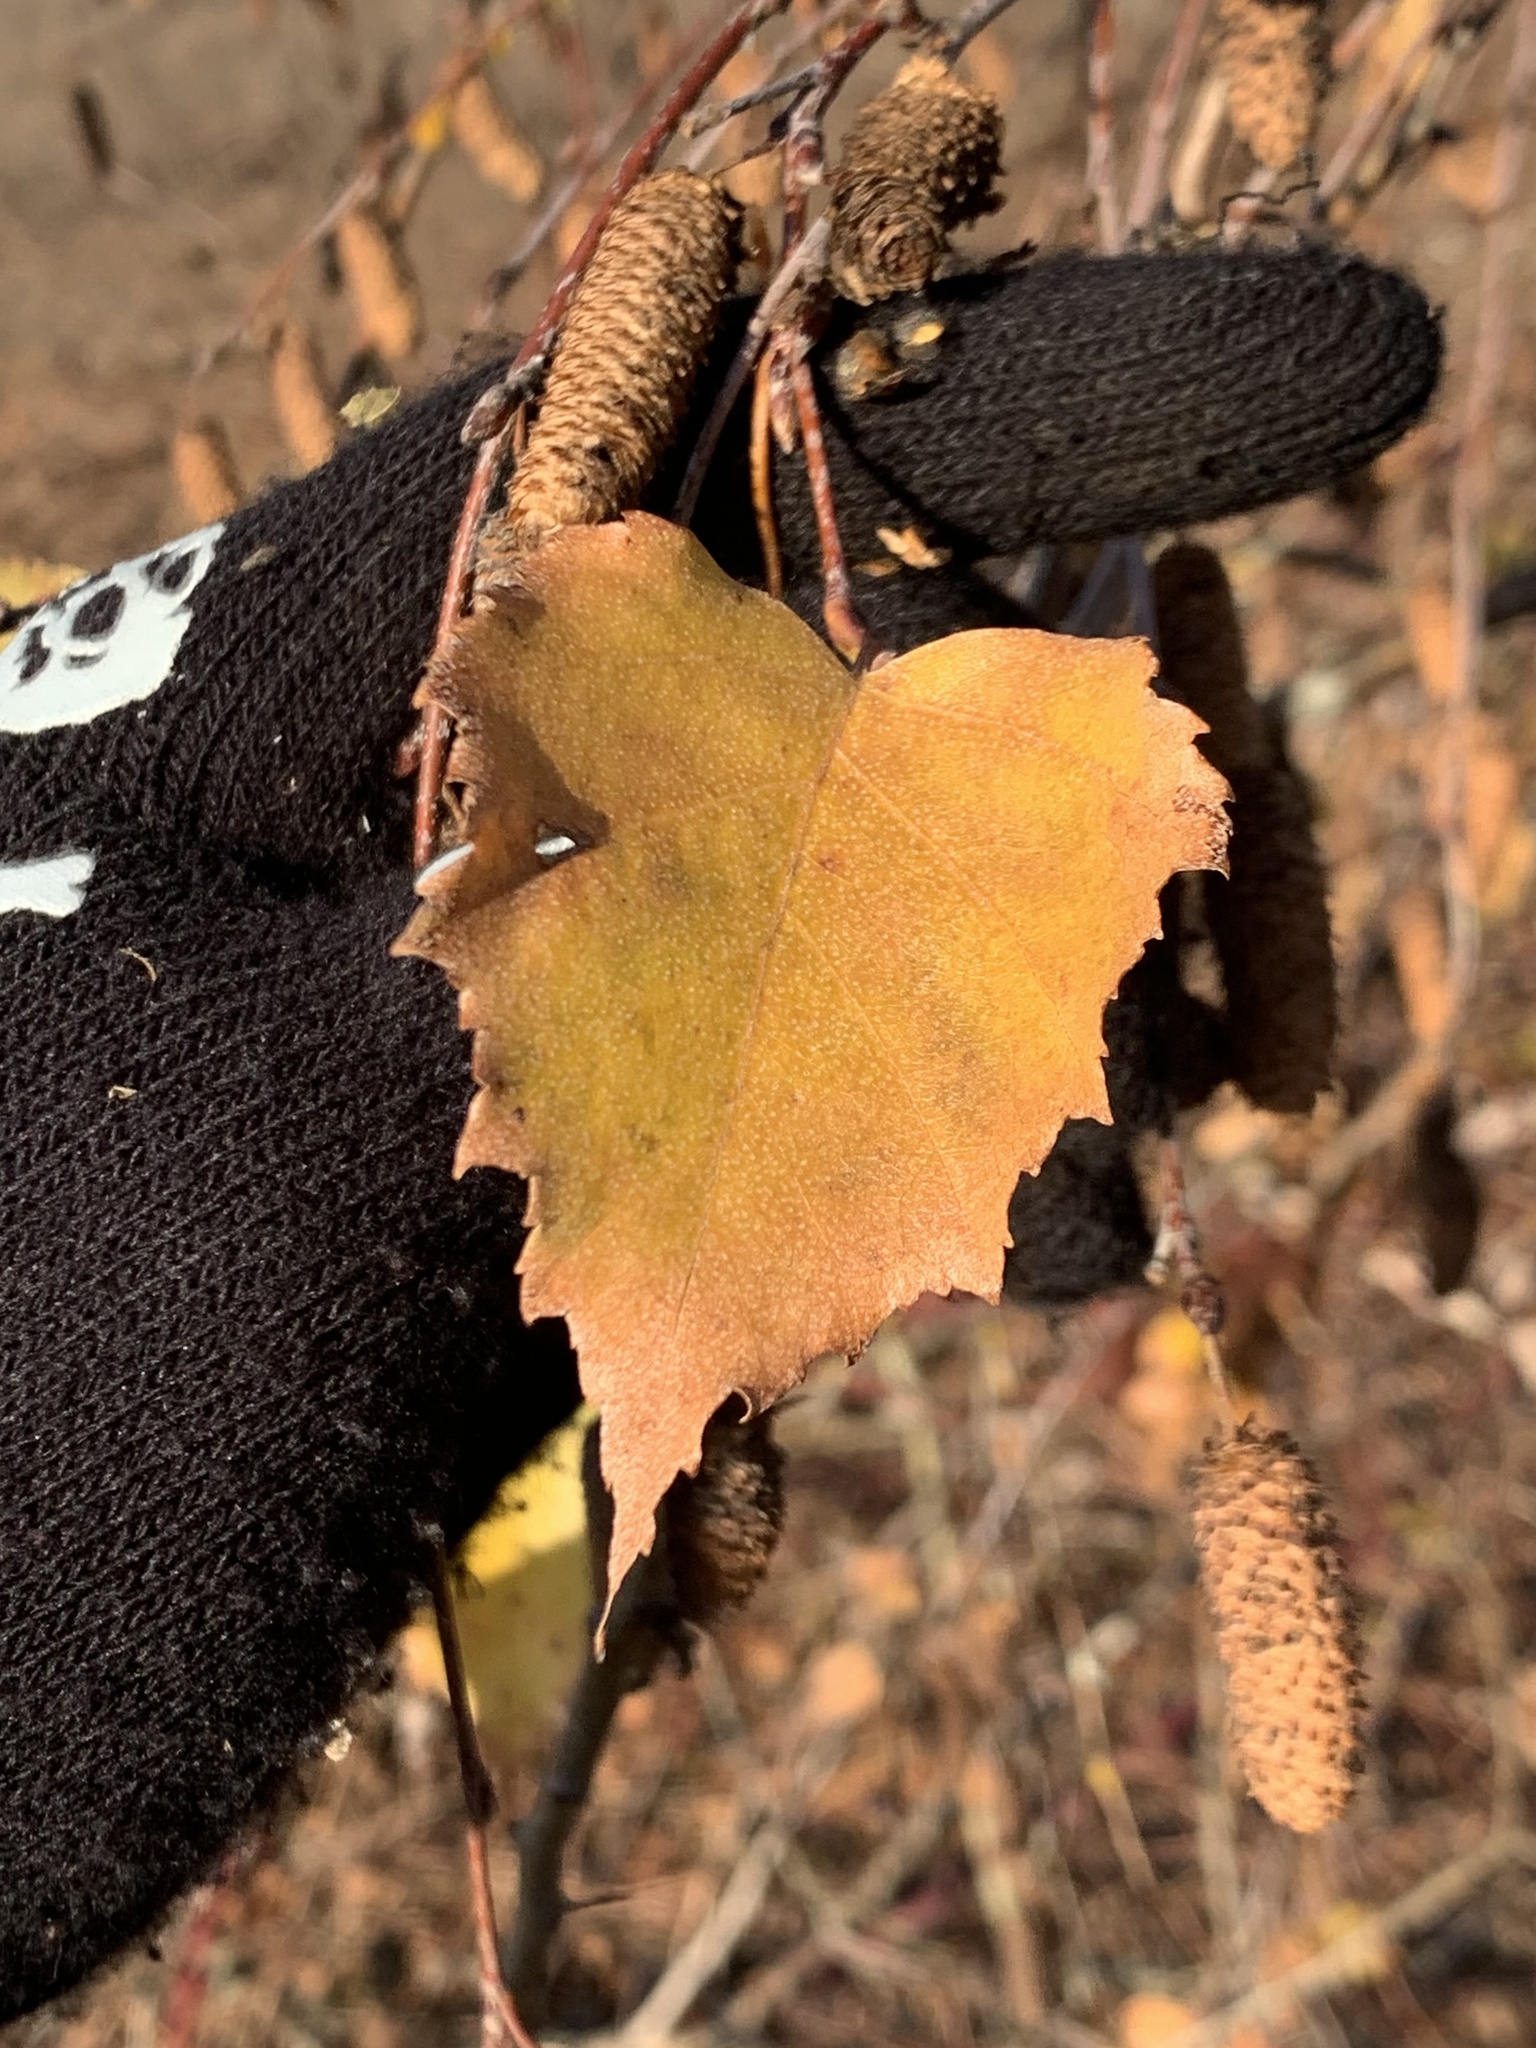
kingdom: Plantae
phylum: Tracheophyta
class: Magnoliopsida
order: Fagales
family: Betulaceae
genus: Betula
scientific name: Betula pendula
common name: Silver birch
